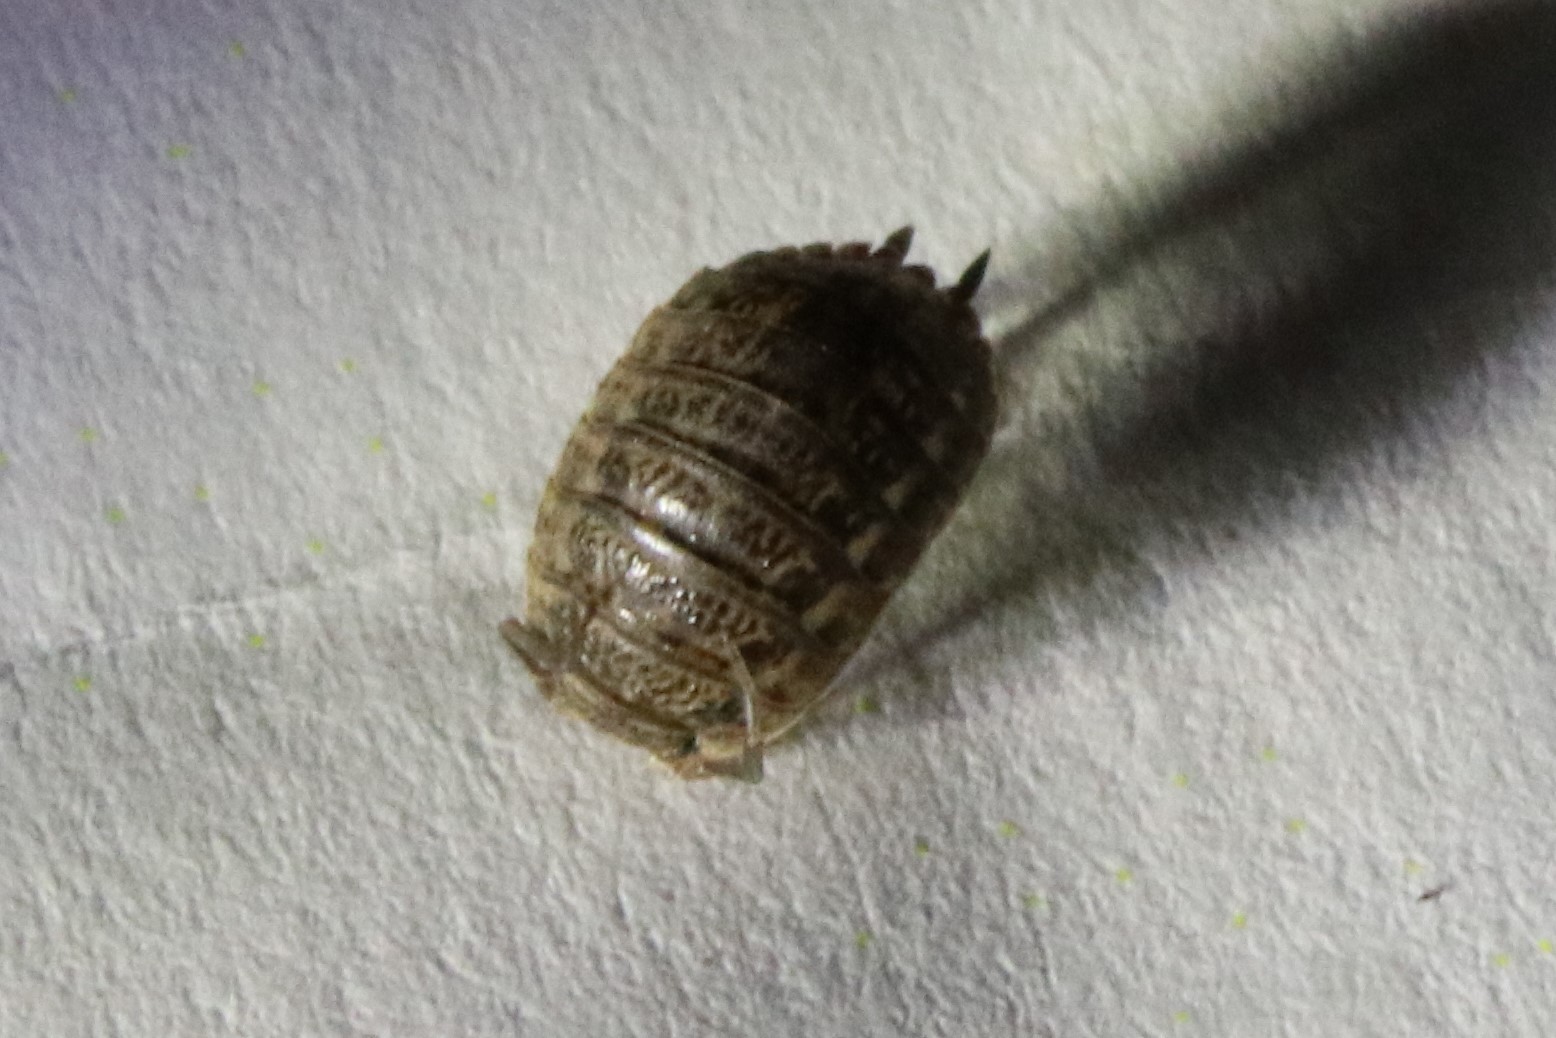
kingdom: Animalia
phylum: Arthropoda
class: Malacostraca
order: Isopoda
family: Trachelipodidae
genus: Trachelipus
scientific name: Trachelipus rathkii
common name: Isopod
